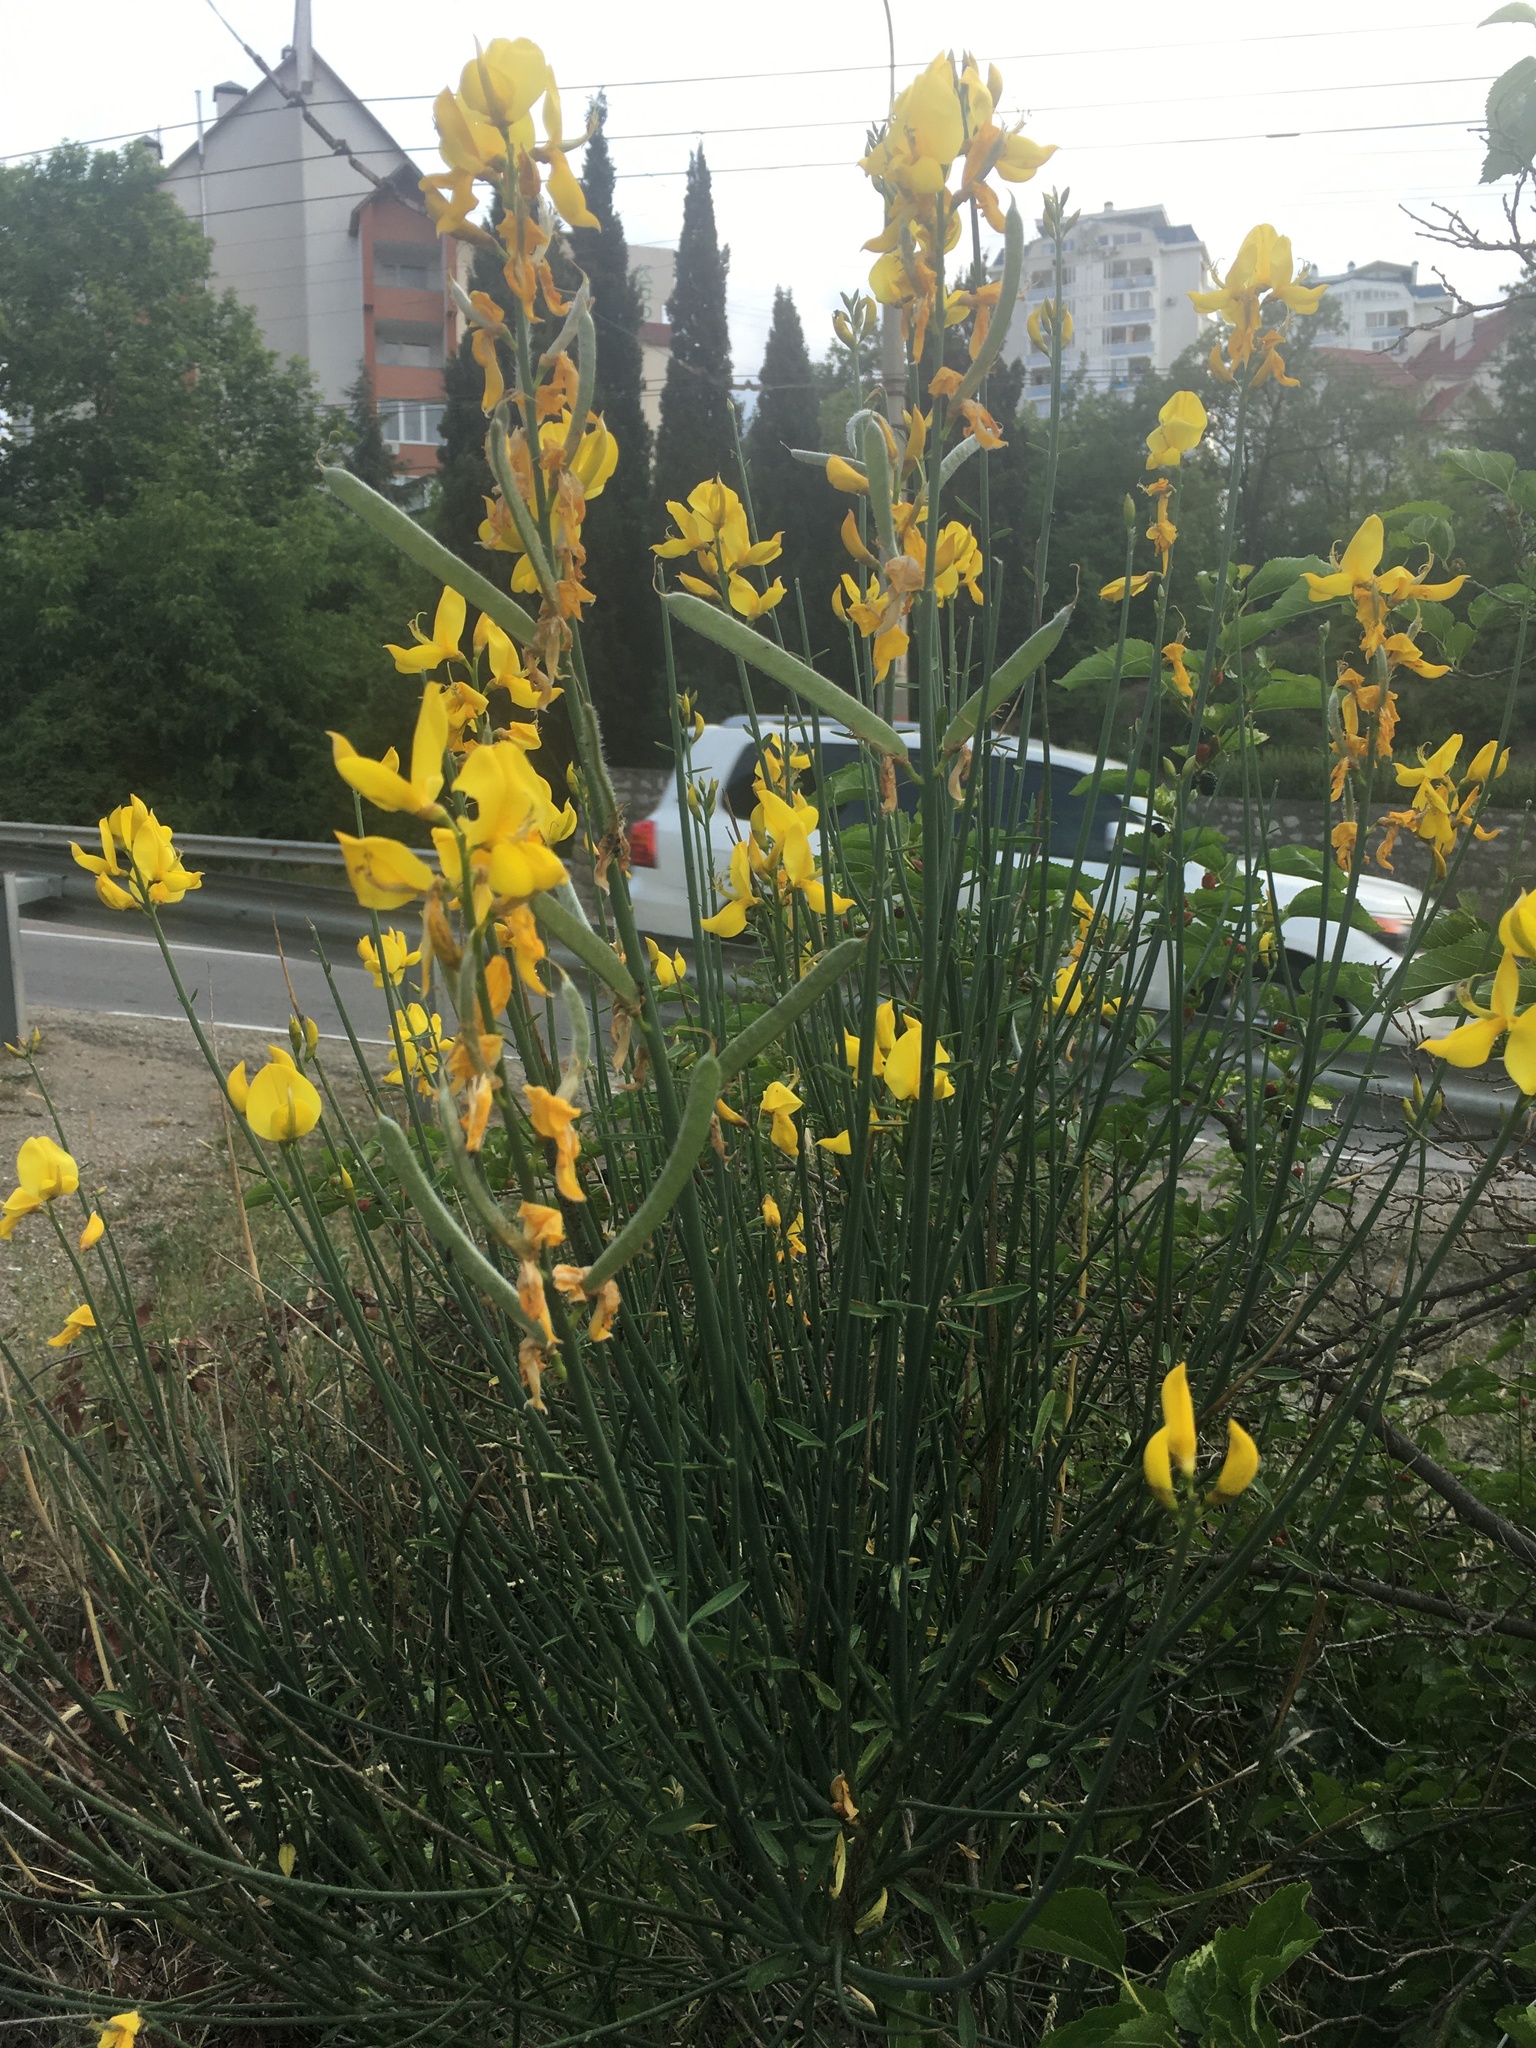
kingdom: Plantae
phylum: Tracheophyta
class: Magnoliopsida
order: Fabales
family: Fabaceae
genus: Spartium
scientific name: Spartium junceum
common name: Spanish broom
